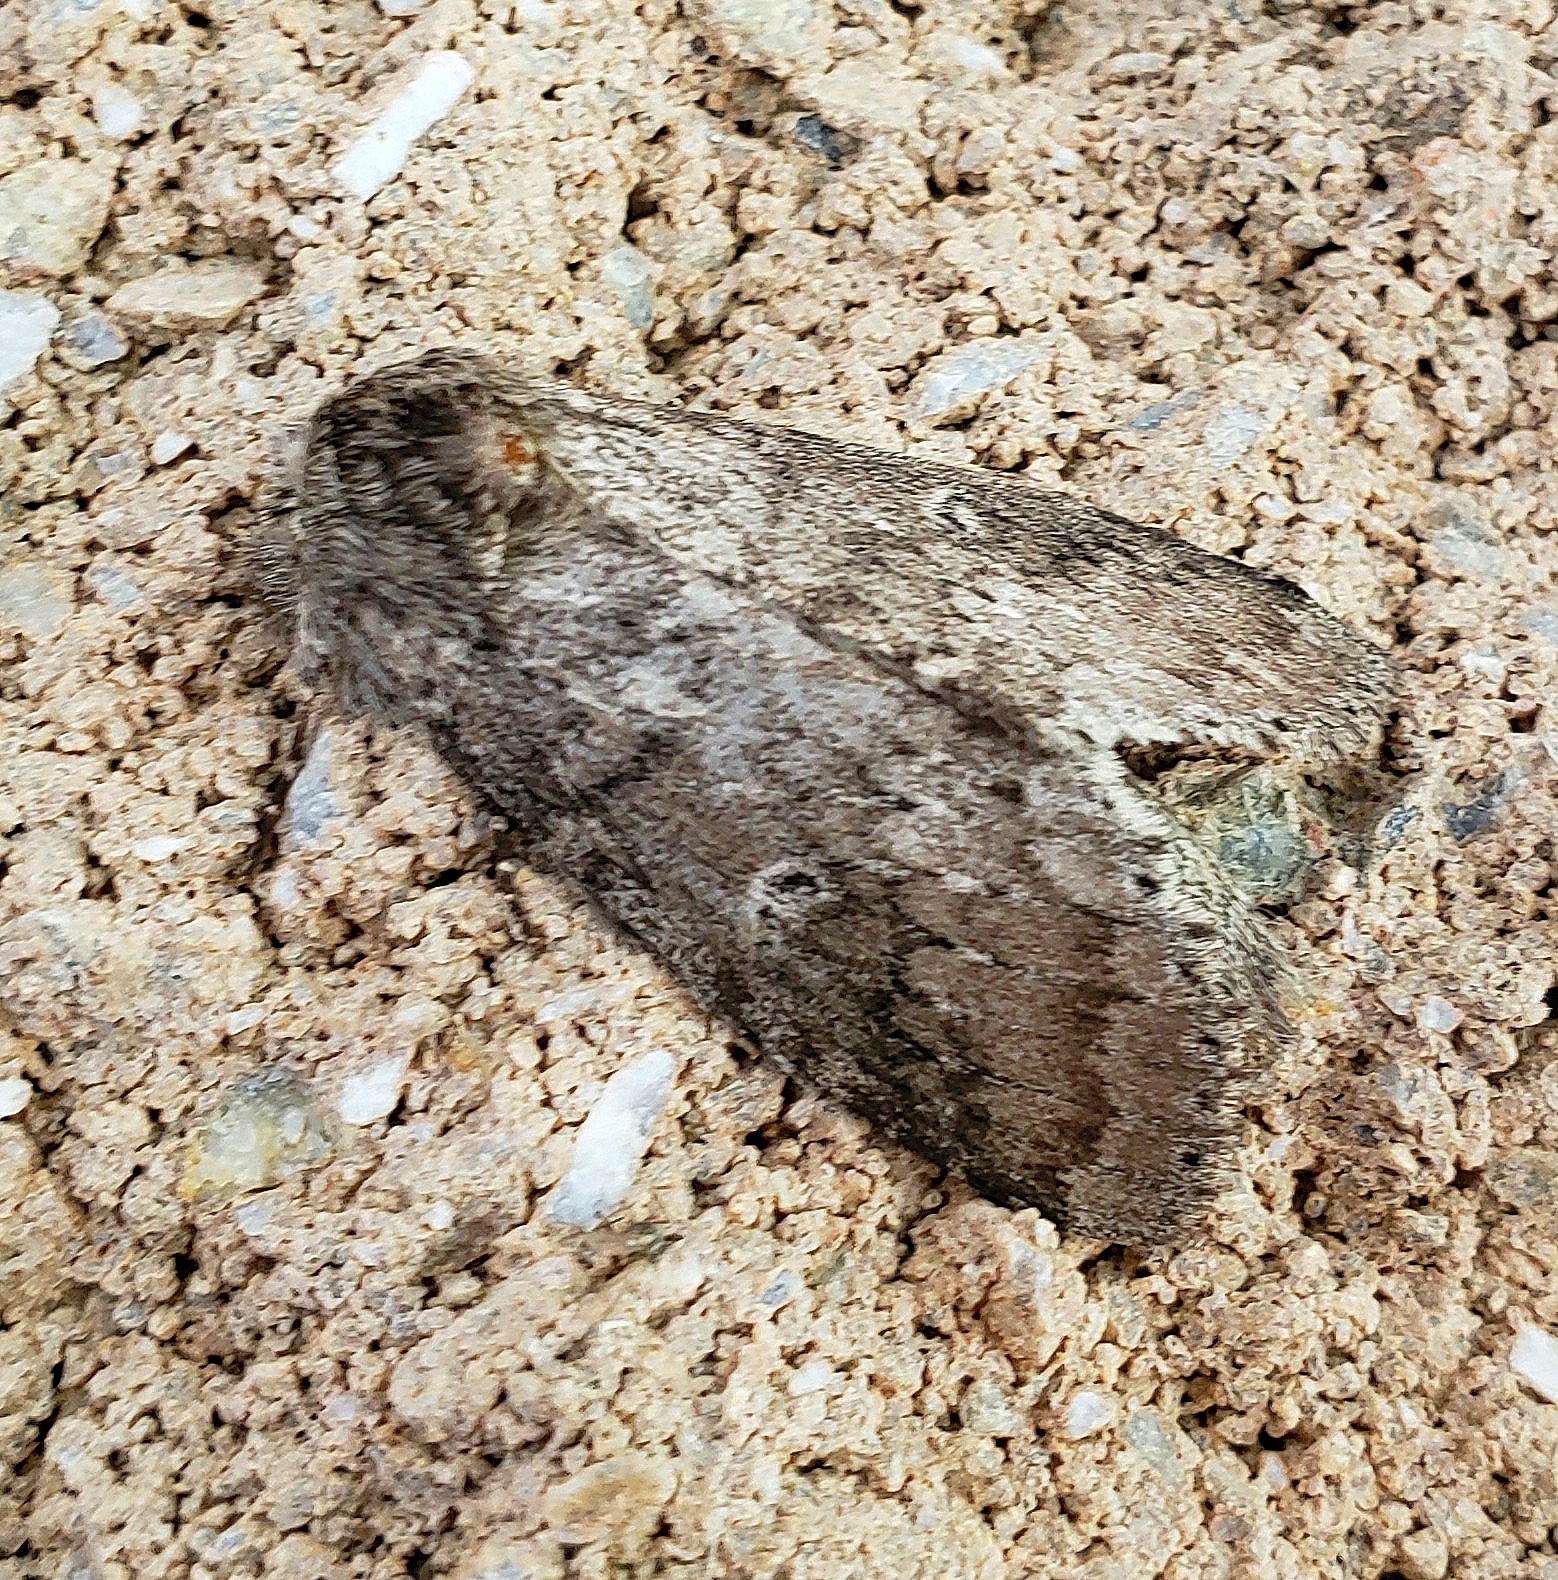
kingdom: Animalia
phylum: Arthropoda
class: Insecta
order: Lepidoptera
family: Notodontidae
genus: Lochmaeus
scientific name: Lochmaeus manteo
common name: Variable oakleaf caterpillar moth
